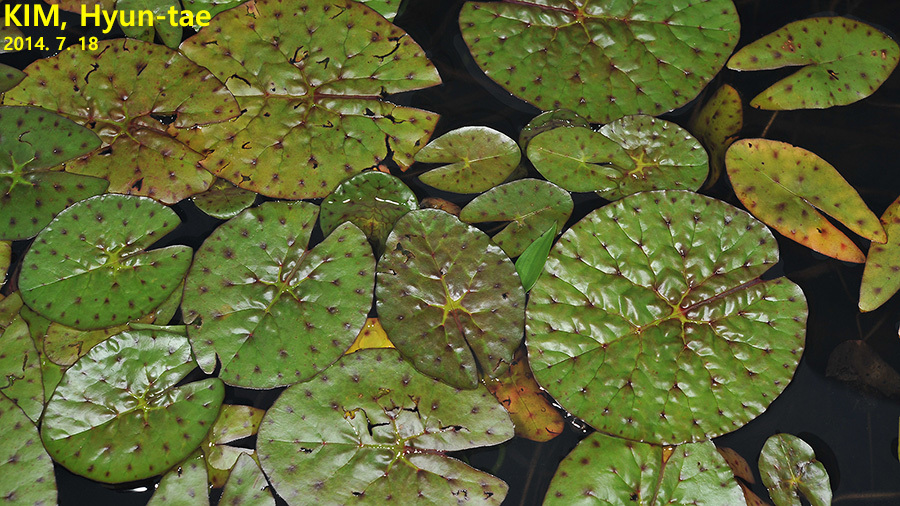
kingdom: Plantae
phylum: Tracheophyta
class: Magnoliopsida
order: Nymphaeales
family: Nymphaeaceae
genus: Euryale
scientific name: Euryale ferox
